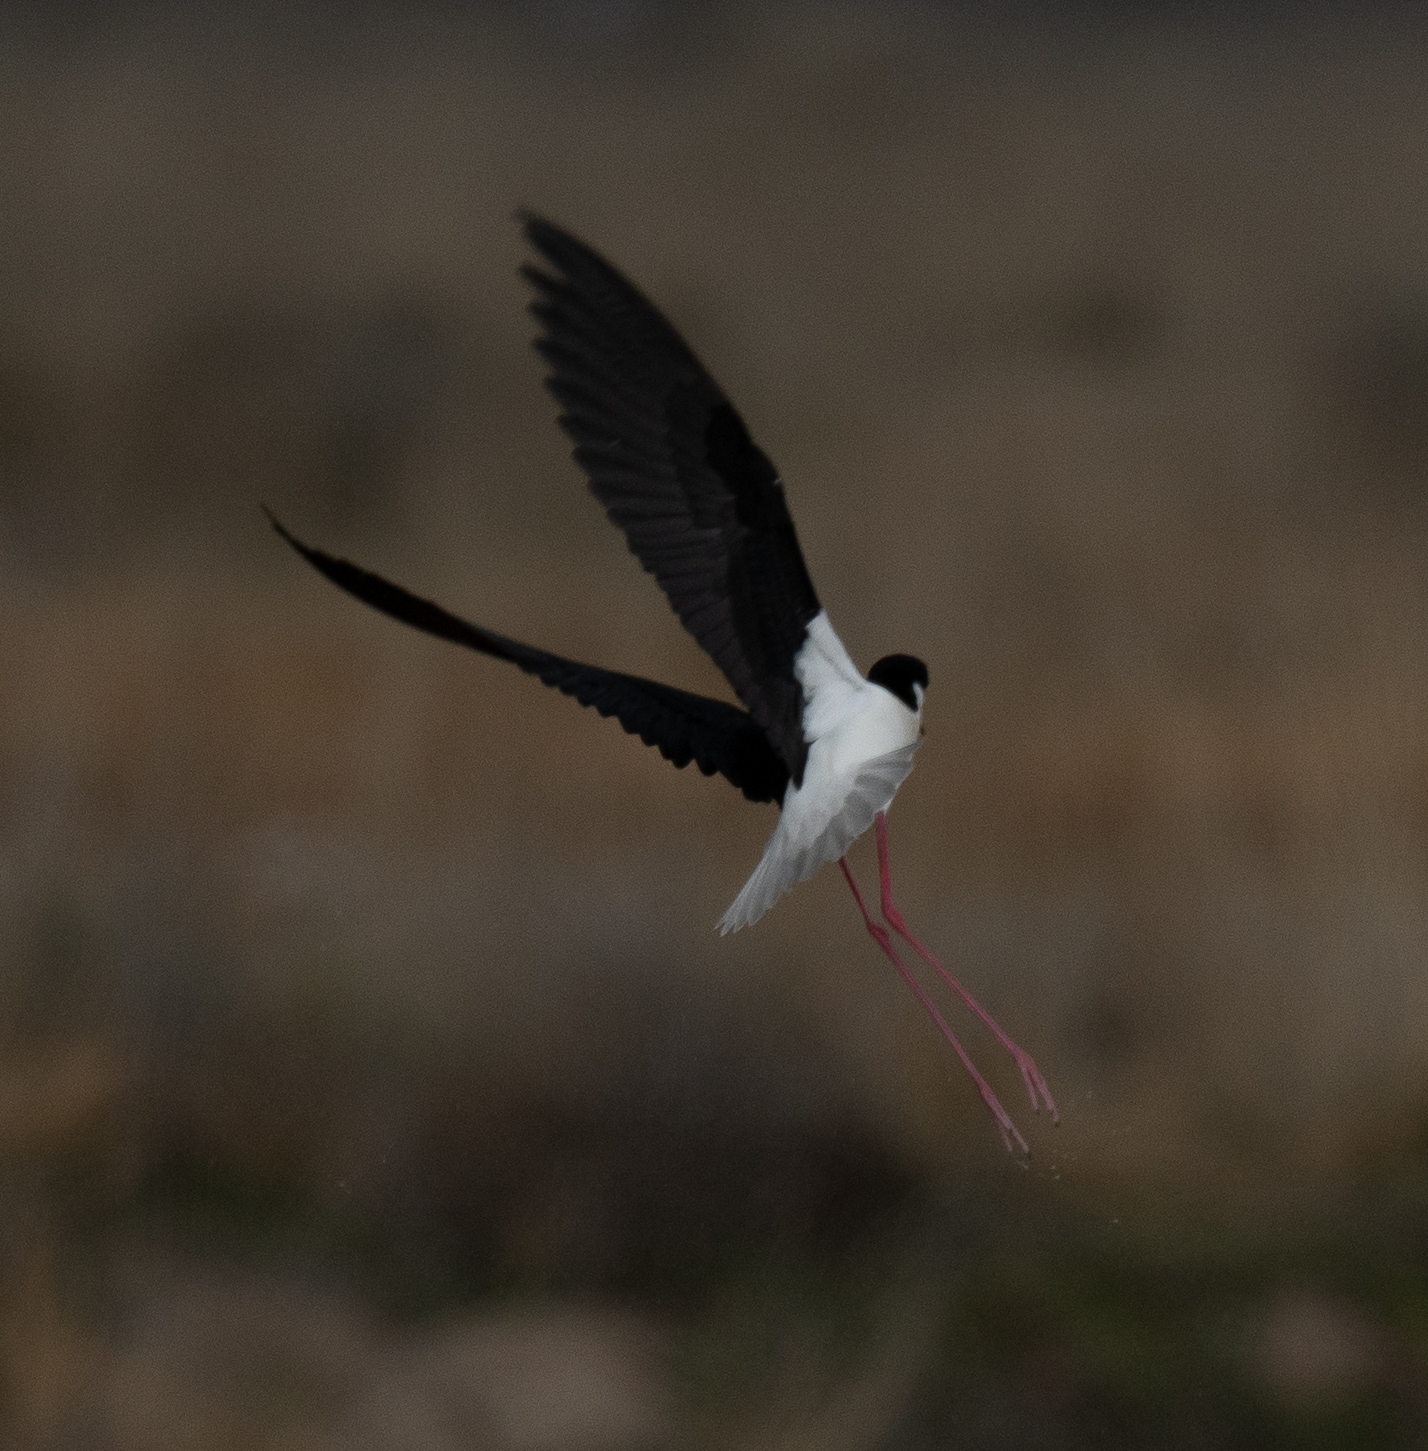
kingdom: Animalia
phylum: Chordata
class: Aves
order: Charadriiformes
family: Recurvirostridae
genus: Himantopus
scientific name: Himantopus mexicanus
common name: Black-necked stilt
